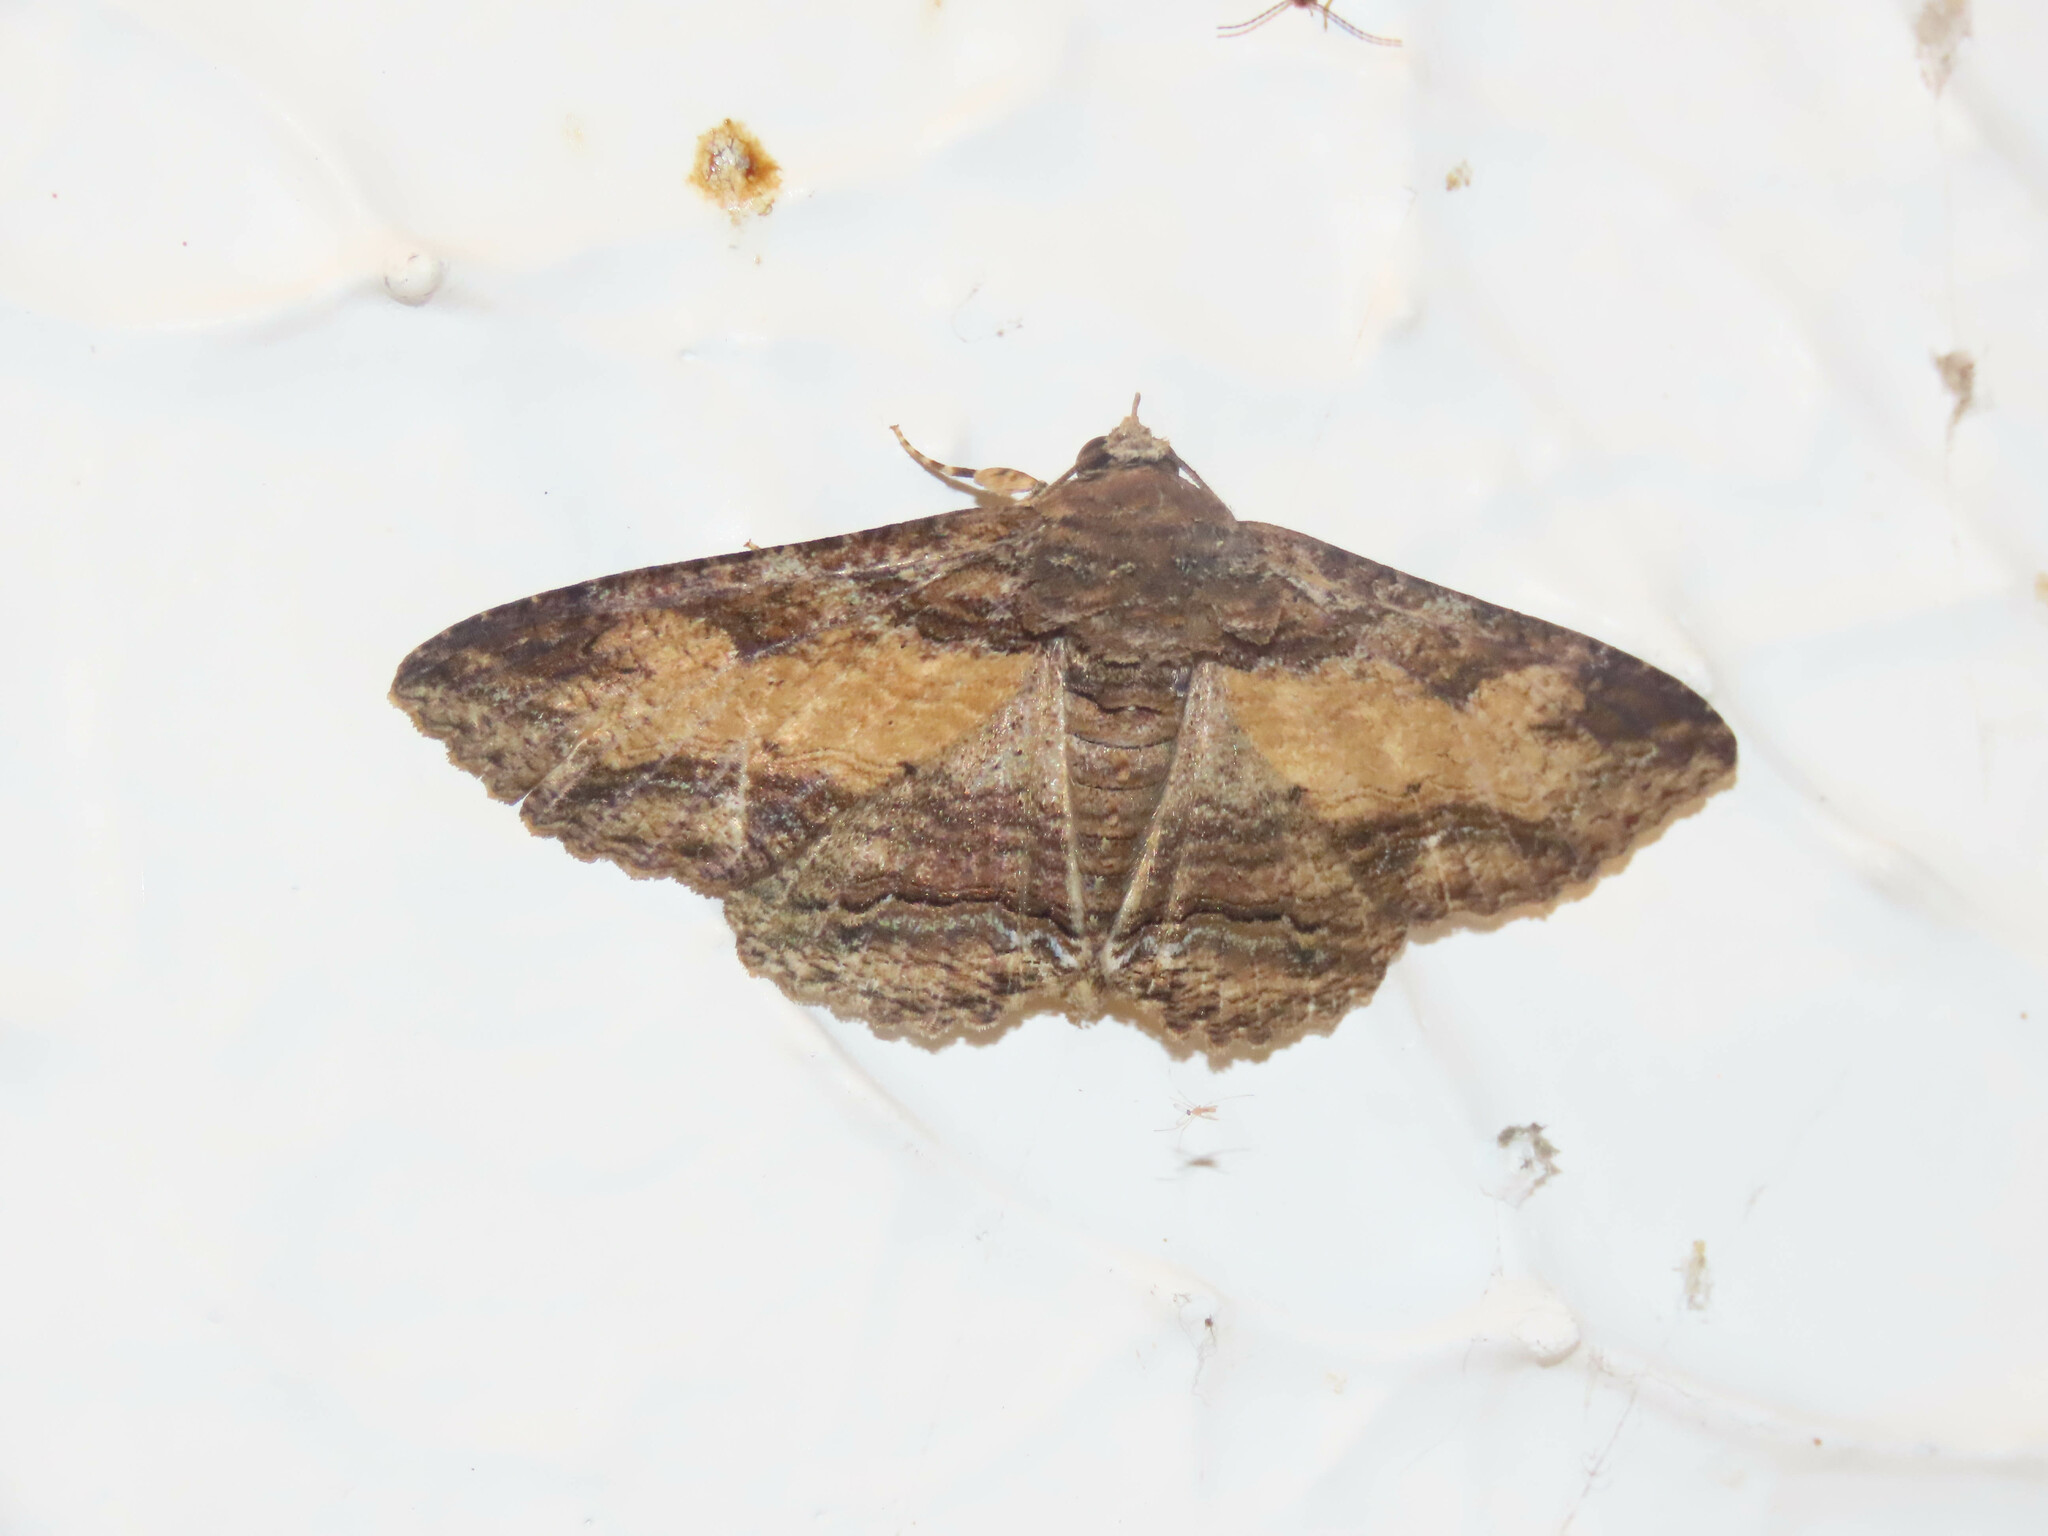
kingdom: Animalia
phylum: Arthropoda
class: Insecta
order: Lepidoptera
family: Erebidae
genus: Zale
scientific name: Zale lunata
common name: Lunate zale moth
